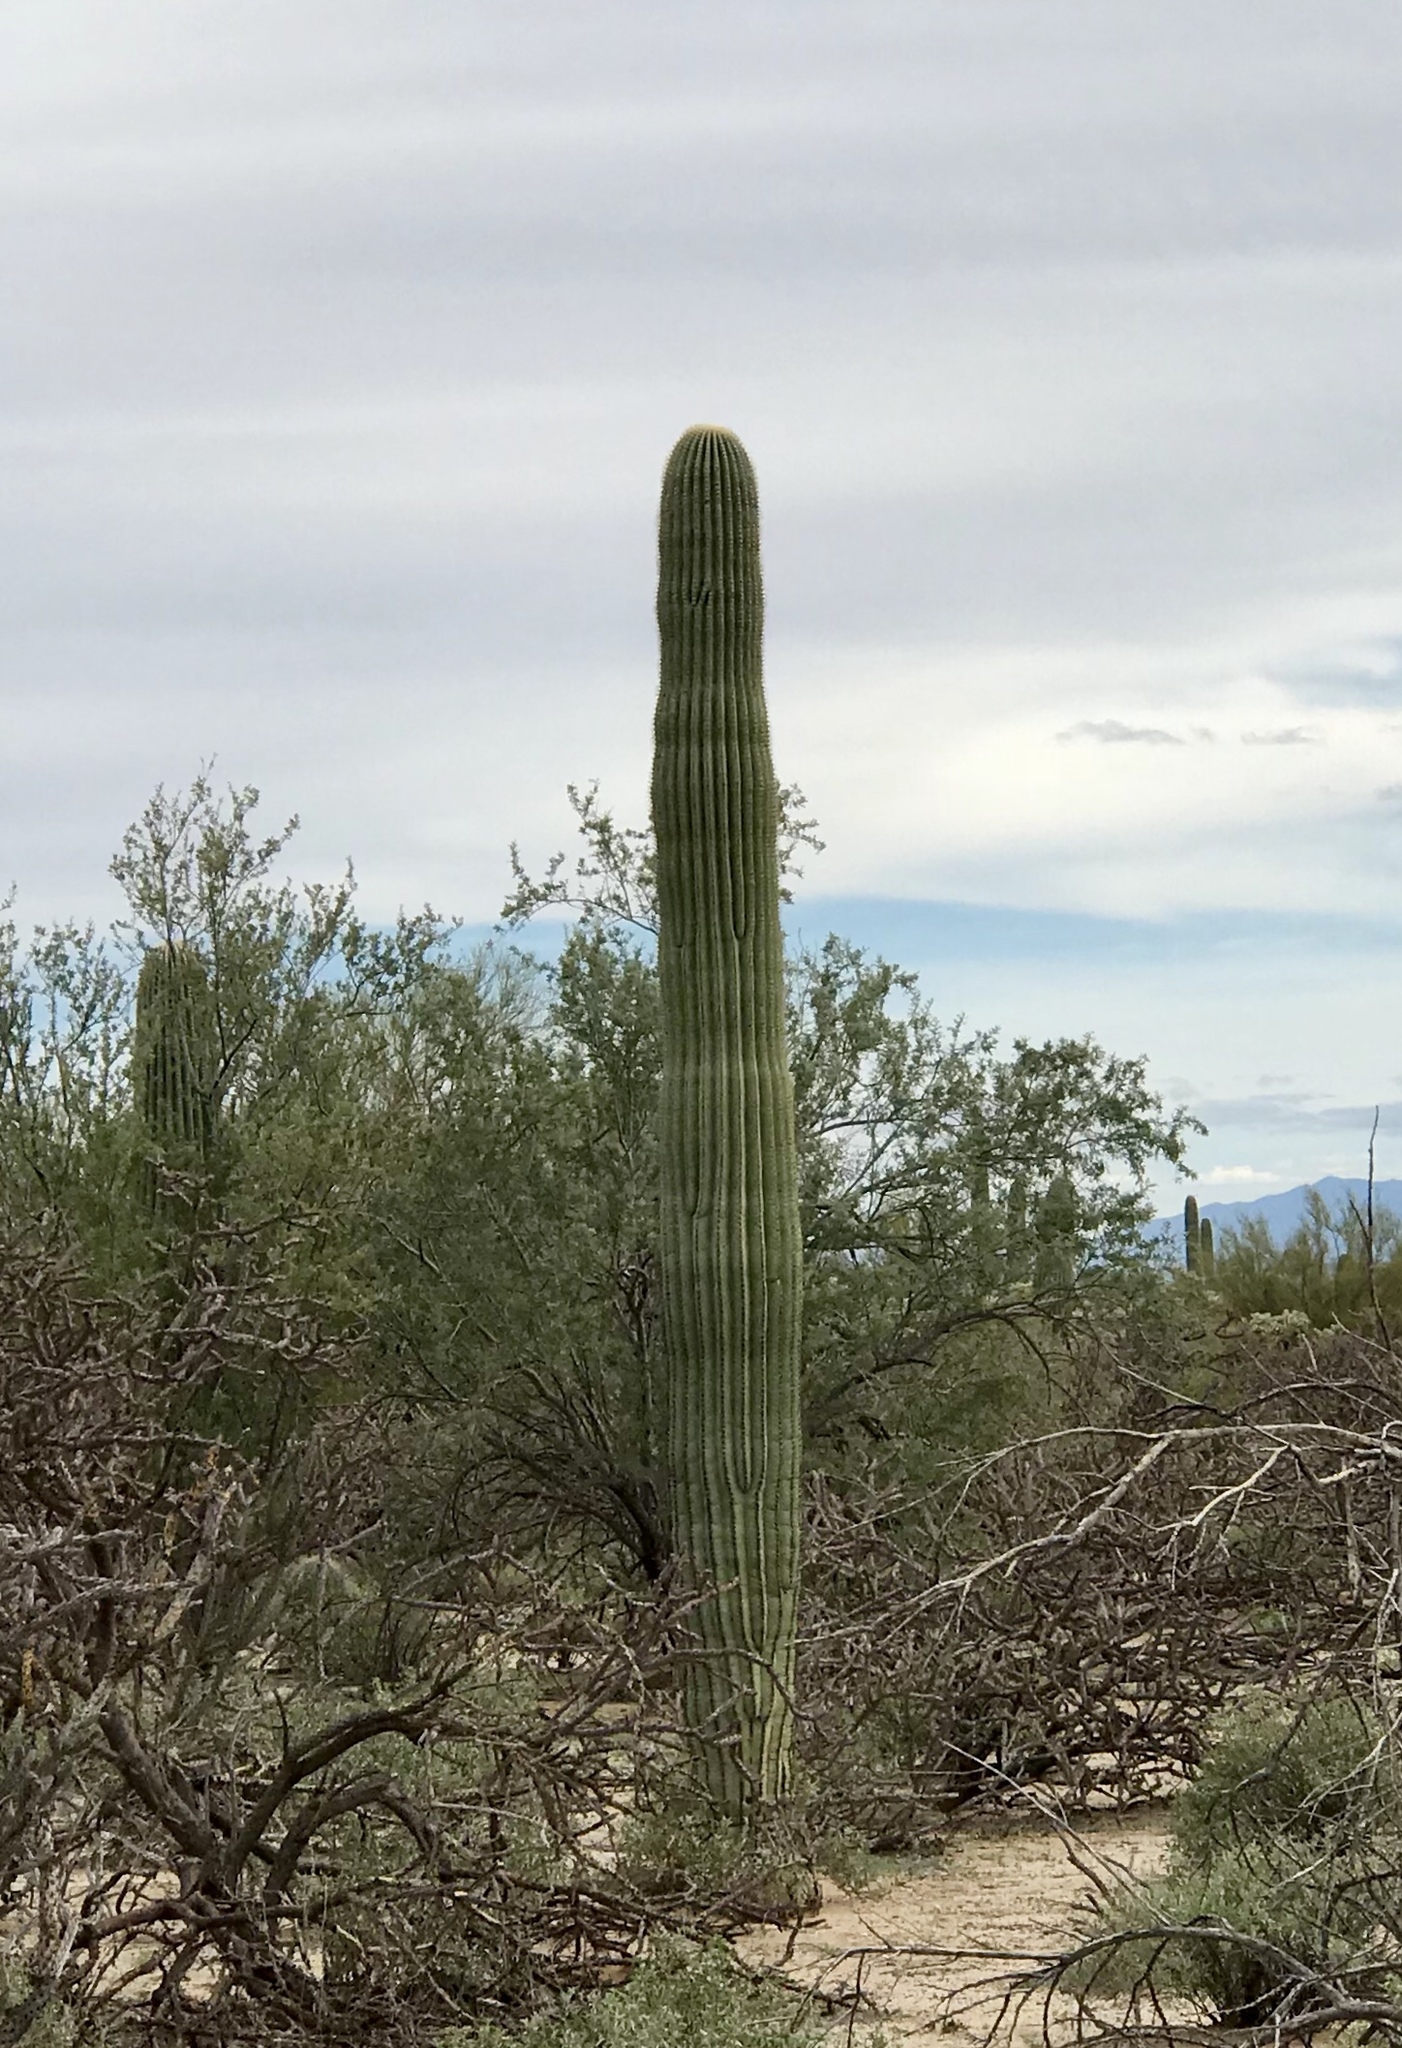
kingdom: Plantae
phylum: Tracheophyta
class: Magnoliopsida
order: Caryophyllales
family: Cactaceae
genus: Carnegiea
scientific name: Carnegiea gigantea
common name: Saguaro
